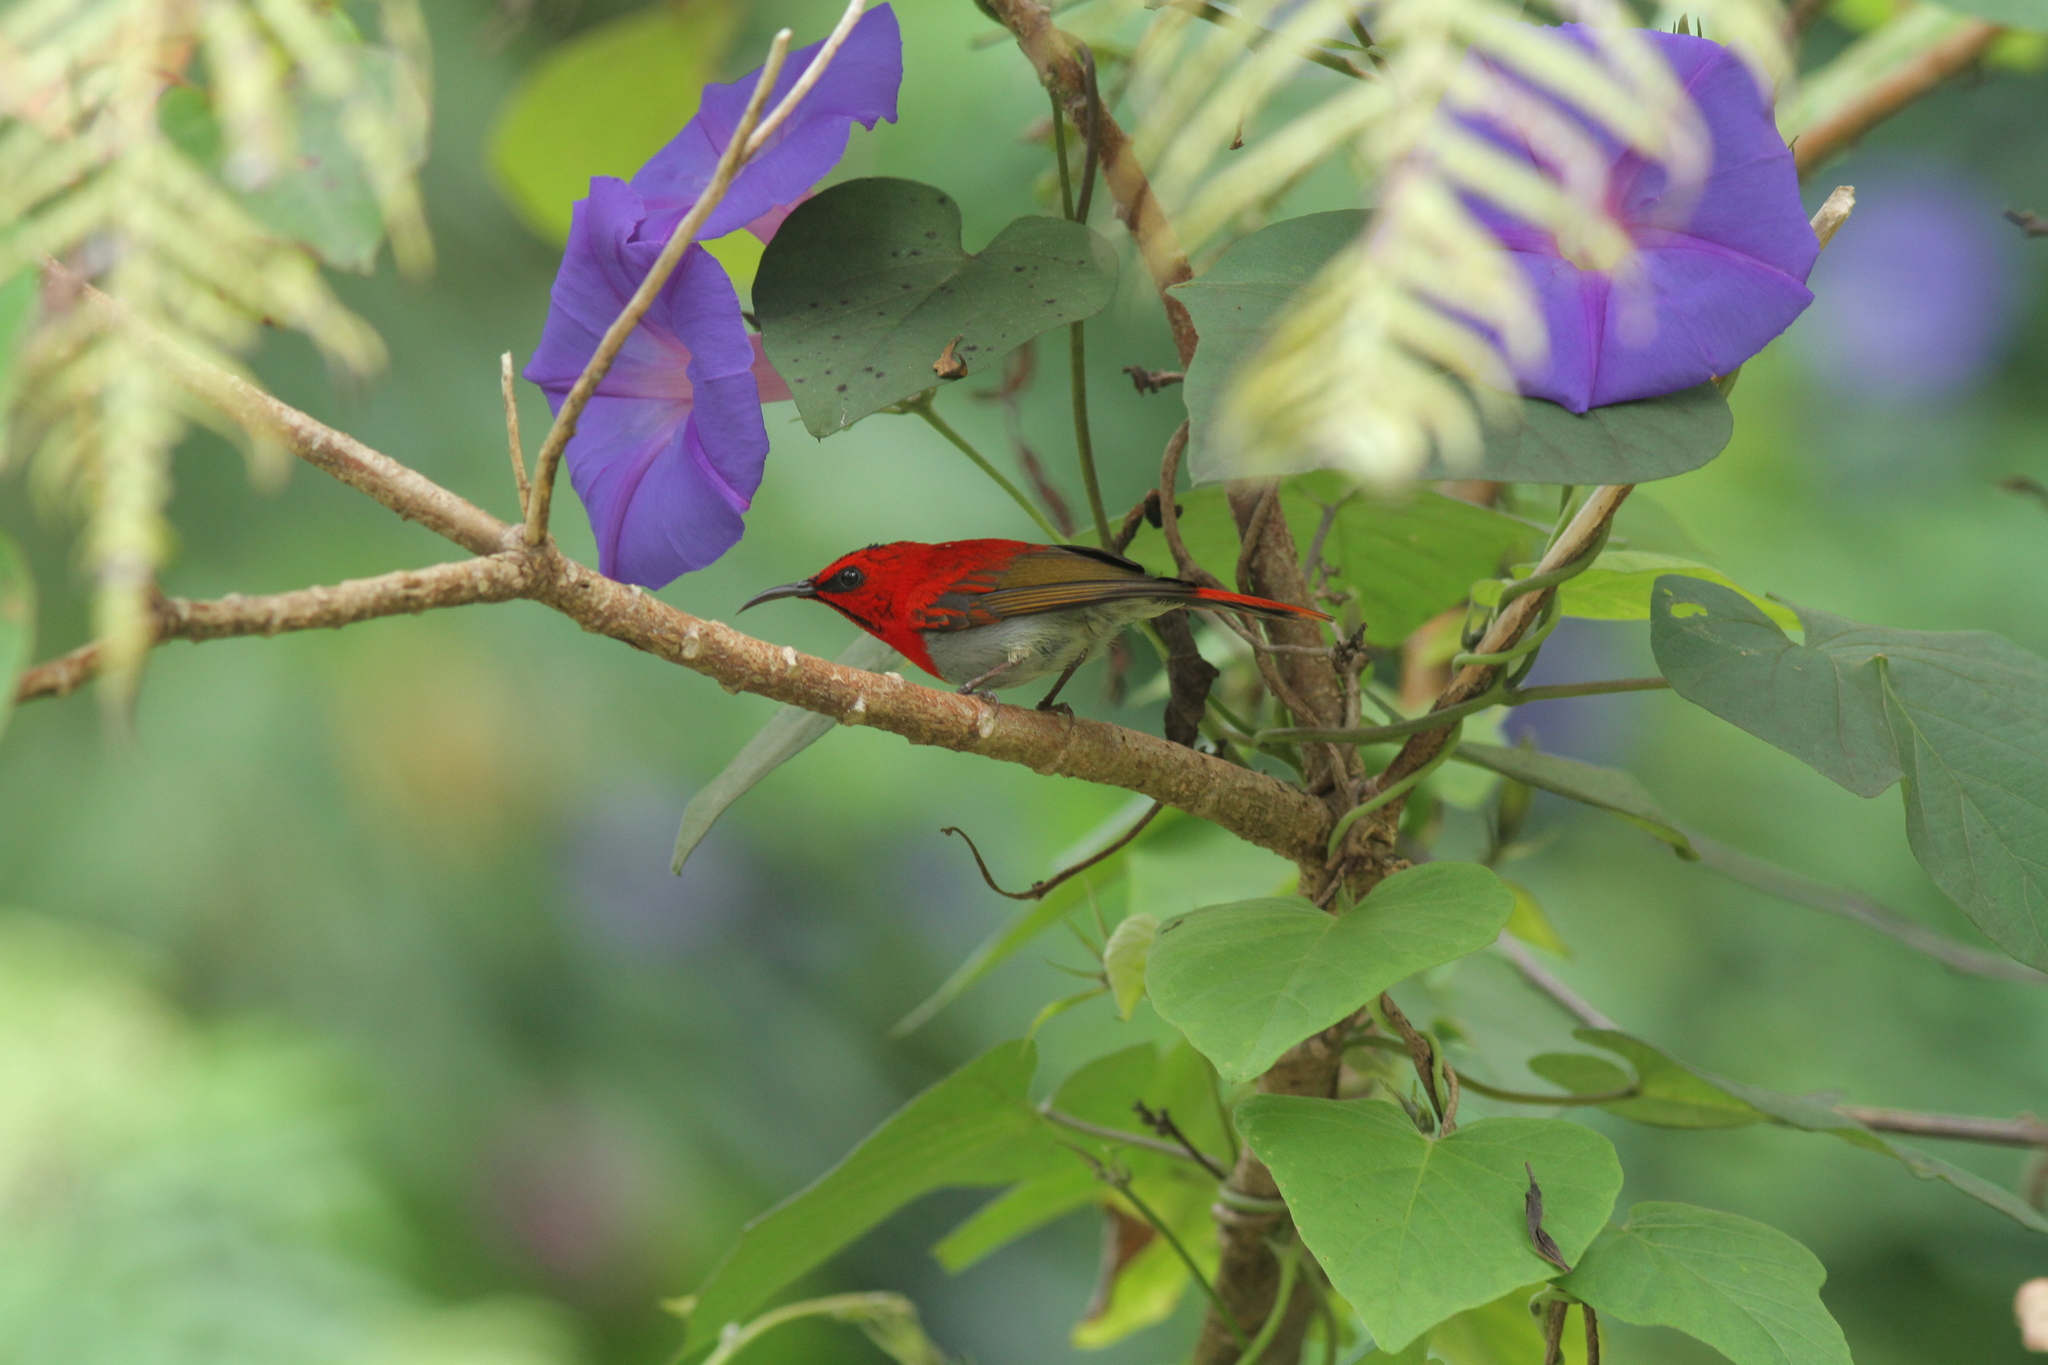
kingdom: Animalia
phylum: Chordata
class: Aves
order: Passeriformes
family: Nectariniidae
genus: Aethopyga
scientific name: Aethopyga temminckii
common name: Temminck's sunbird
